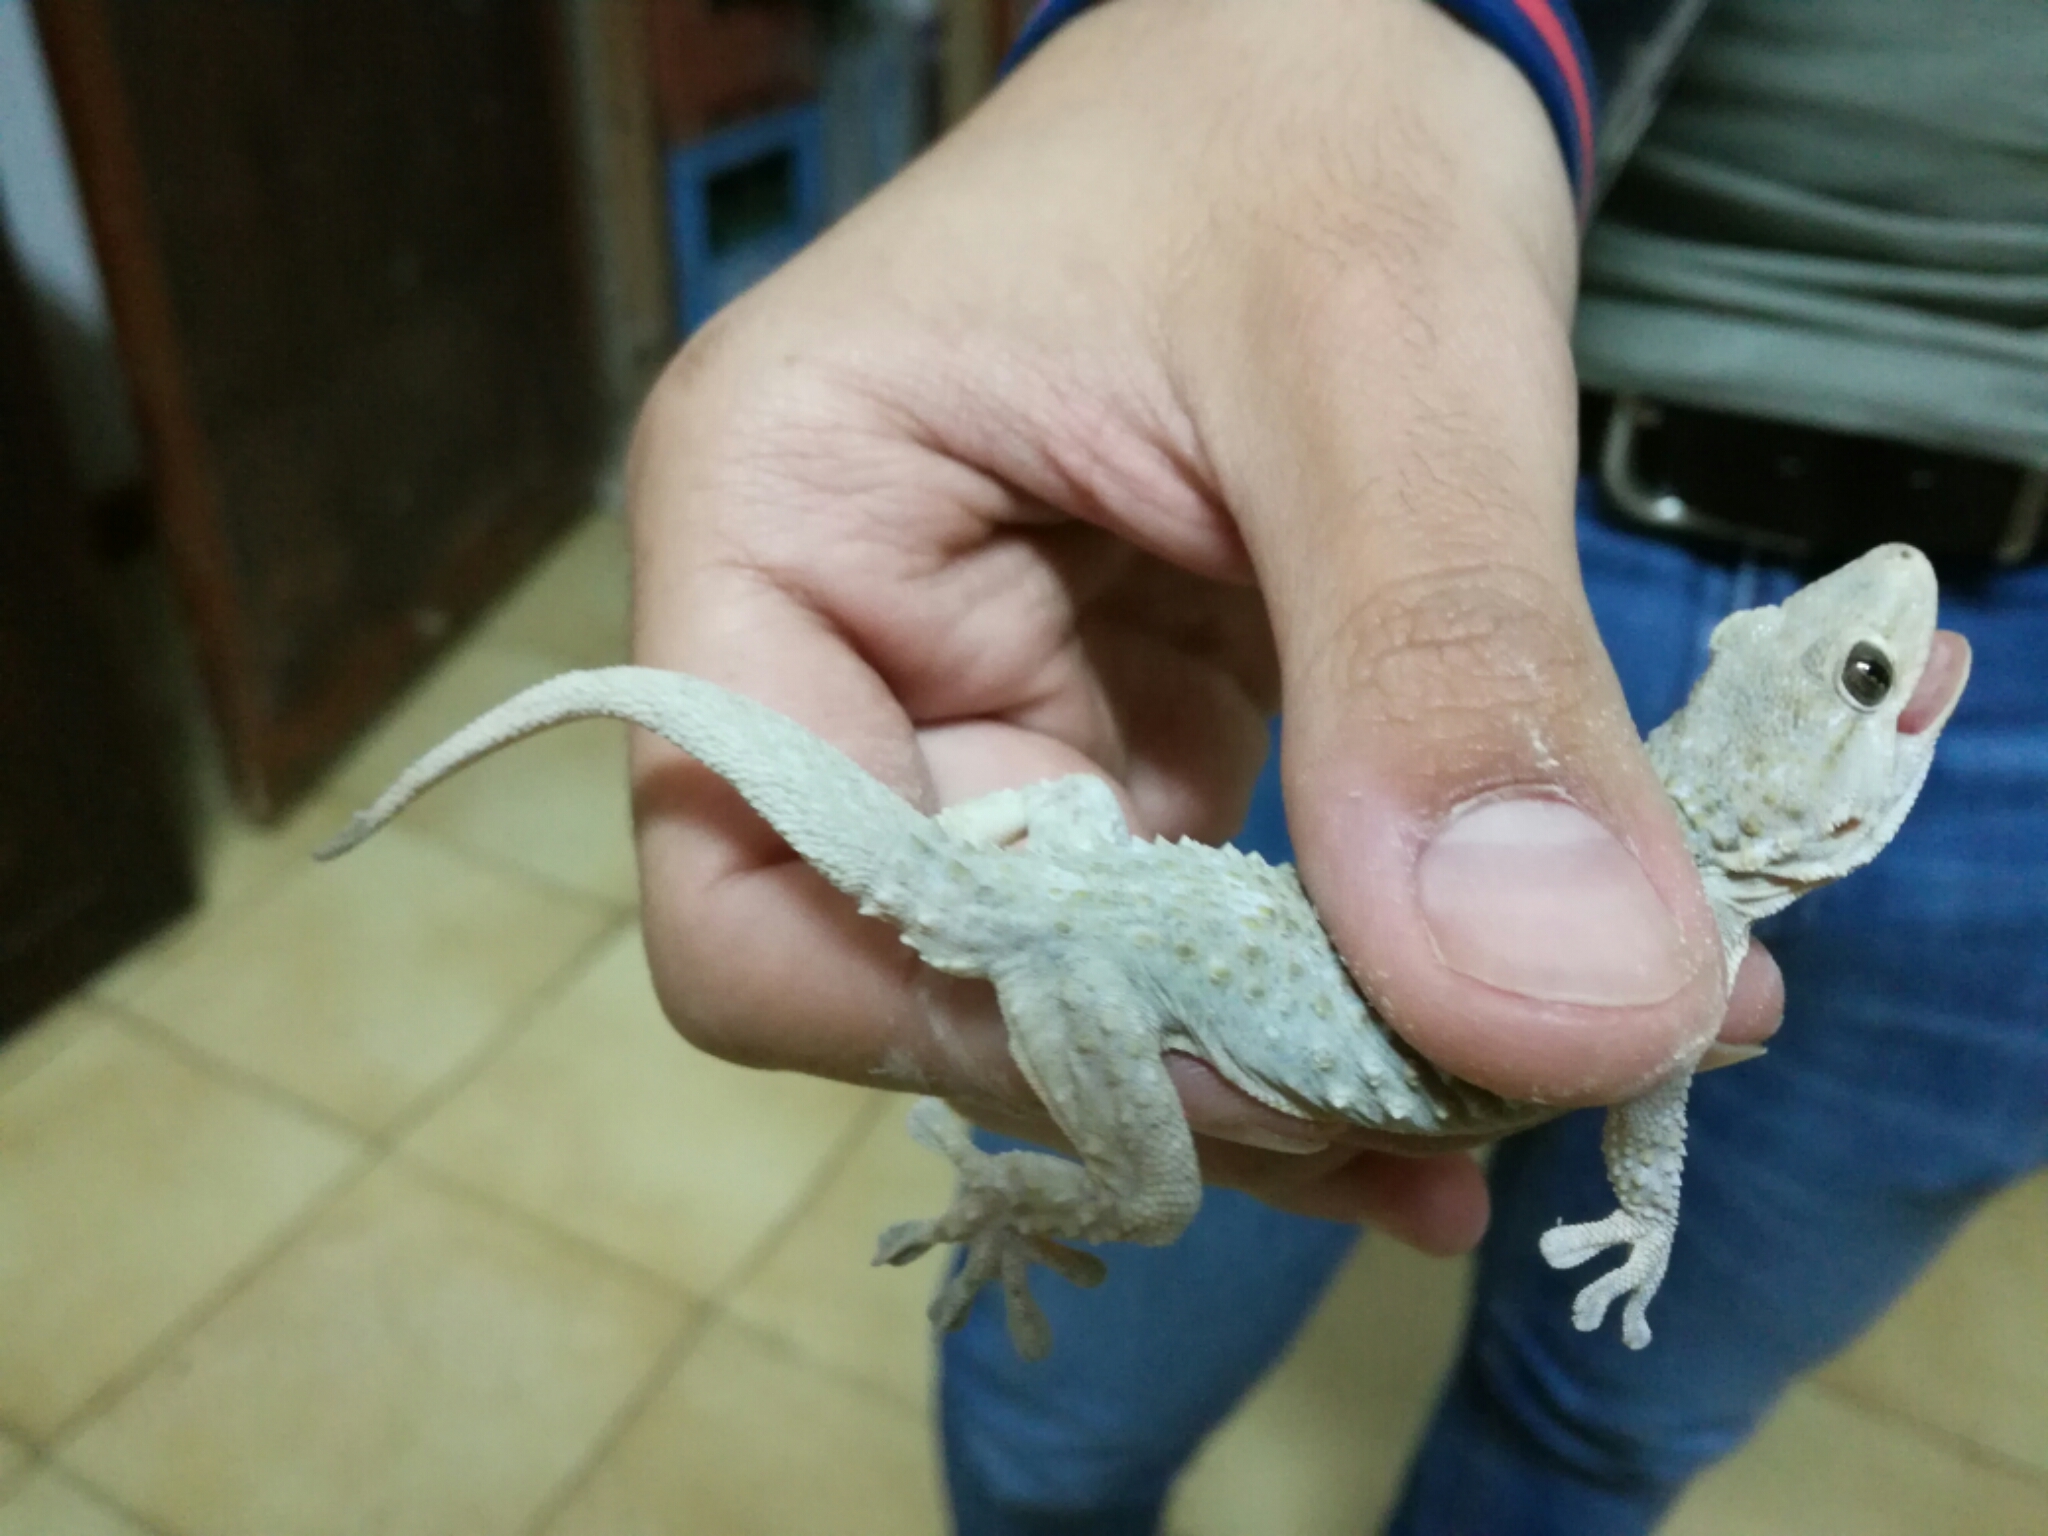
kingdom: Animalia
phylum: Chordata
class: Squamata
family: Phyllodactylidae
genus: Tarentola
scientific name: Tarentola mauritanica
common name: Moorish gecko
